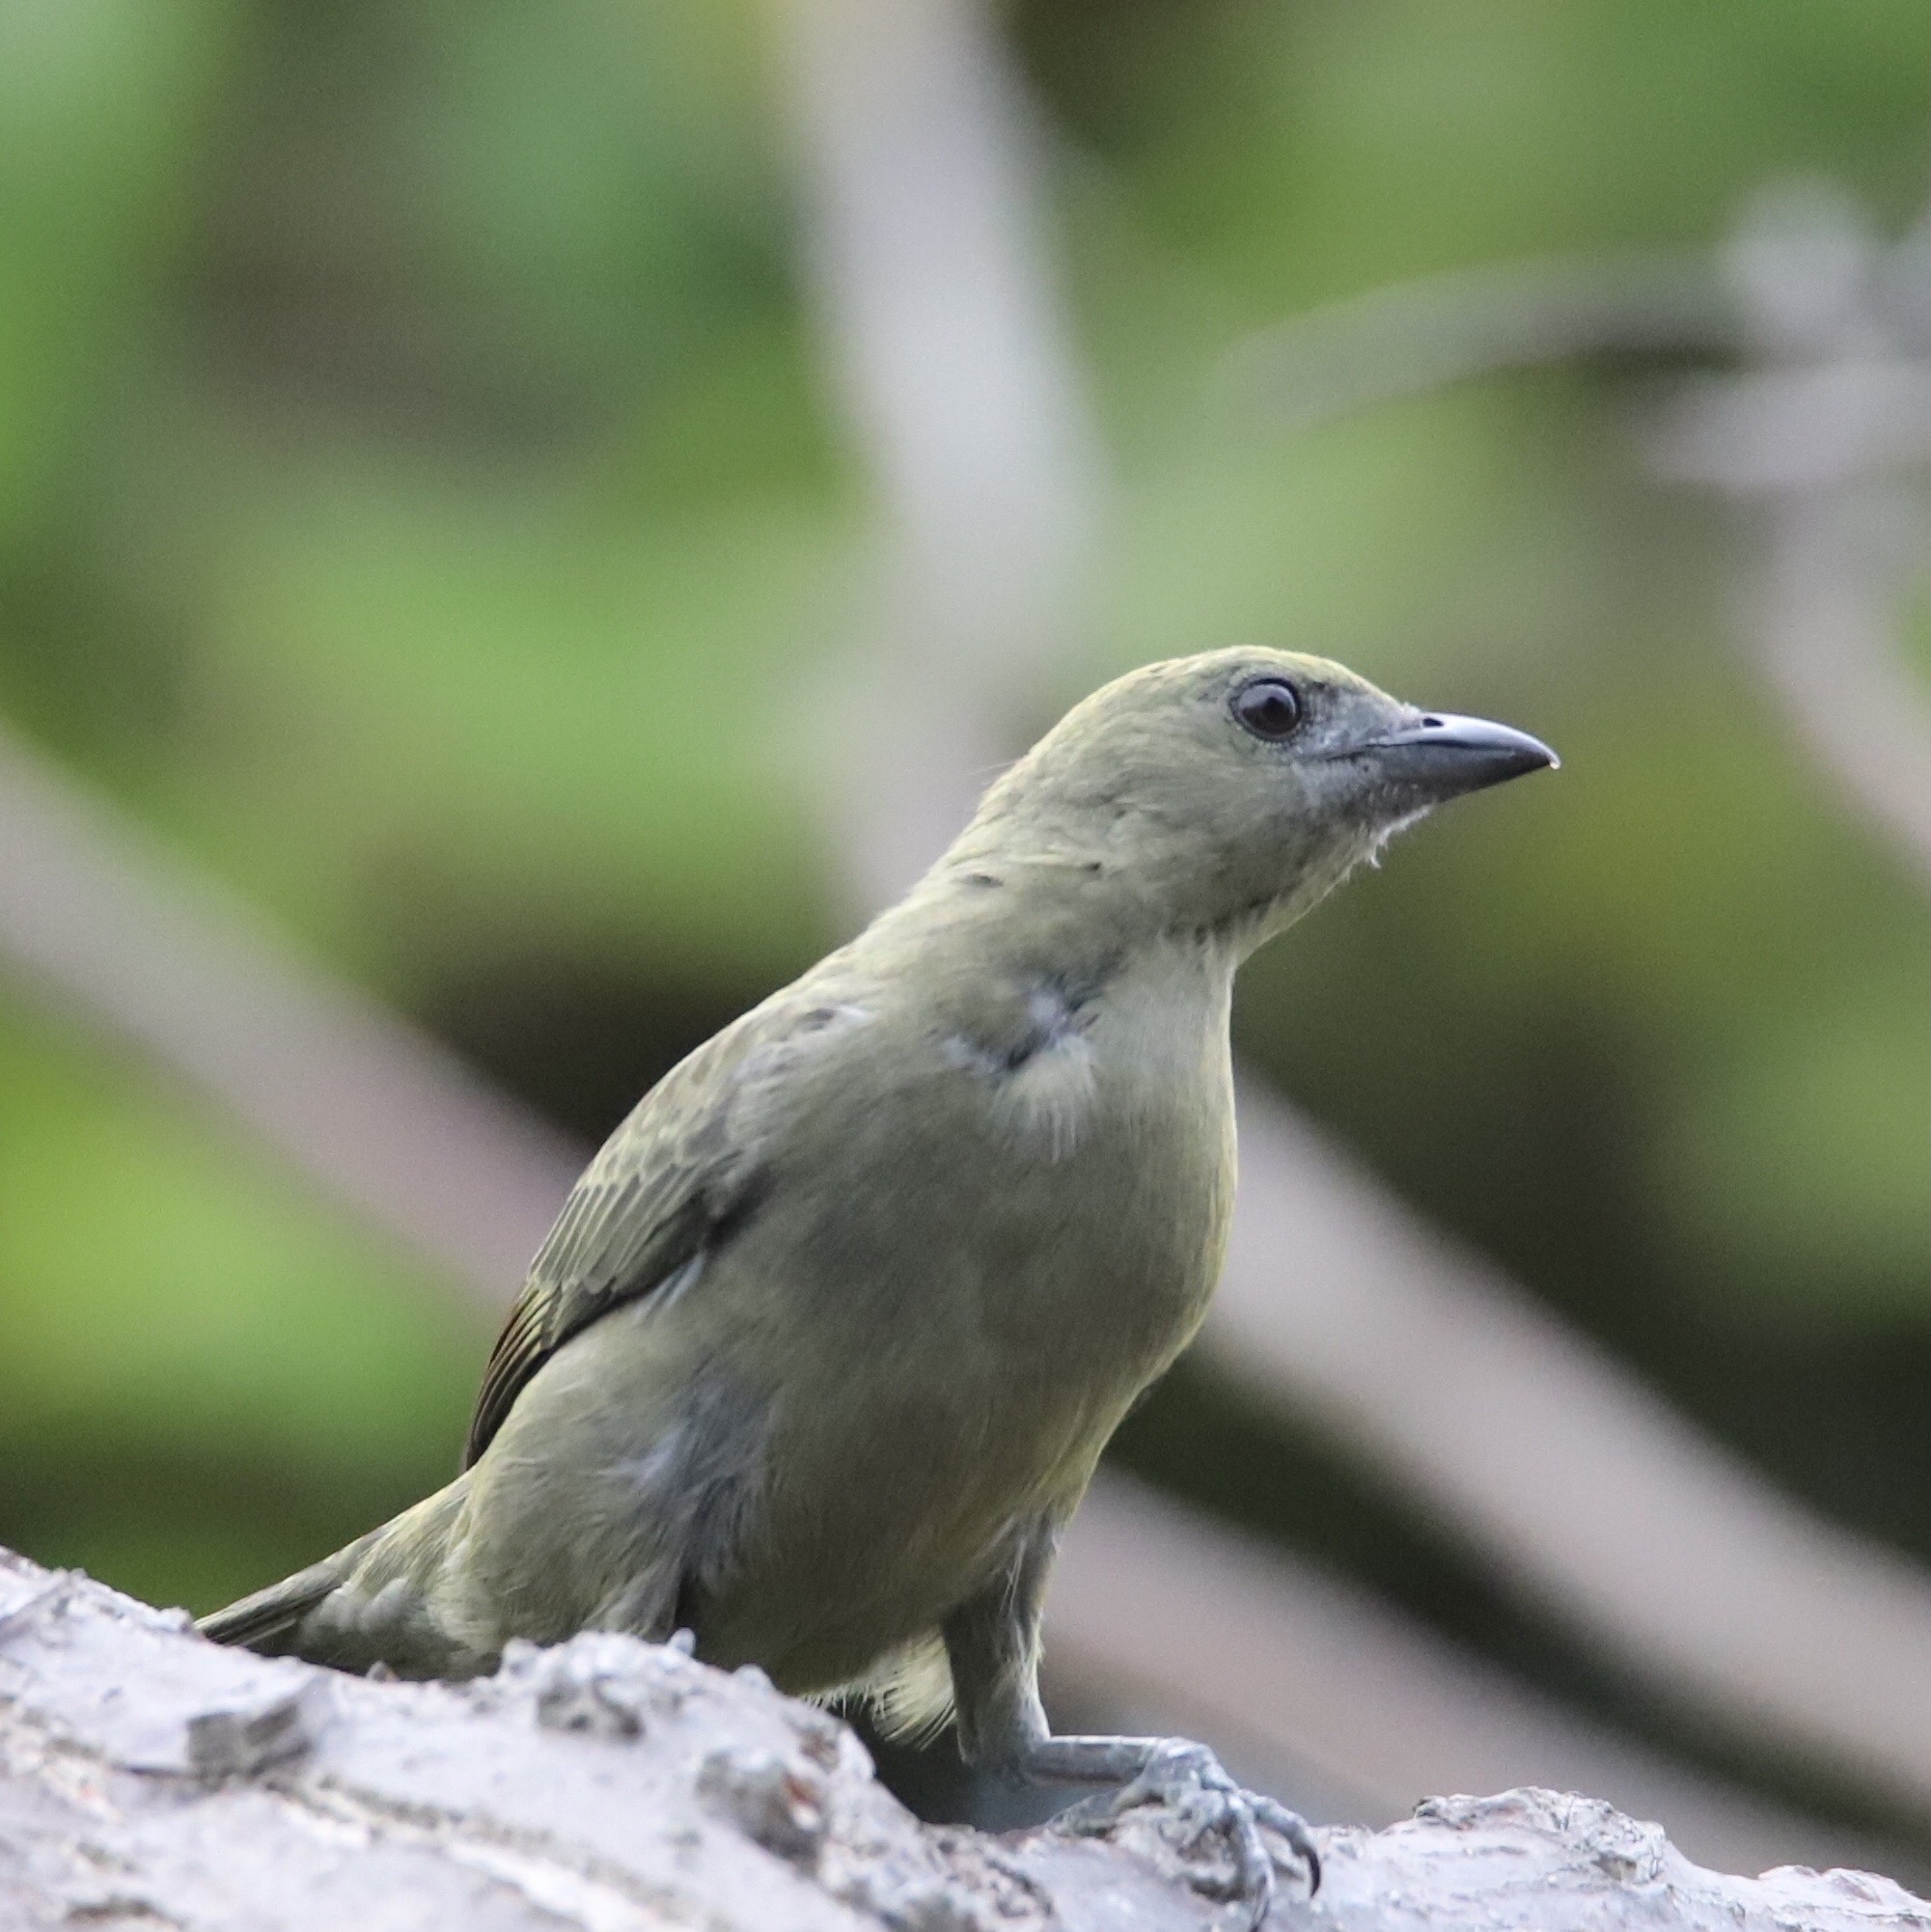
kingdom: Animalia
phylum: Chordata
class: Aves
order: Passeriformes
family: Thraupidae
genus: Thraupis
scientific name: Thraupis palmarum
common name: Palm tanager
